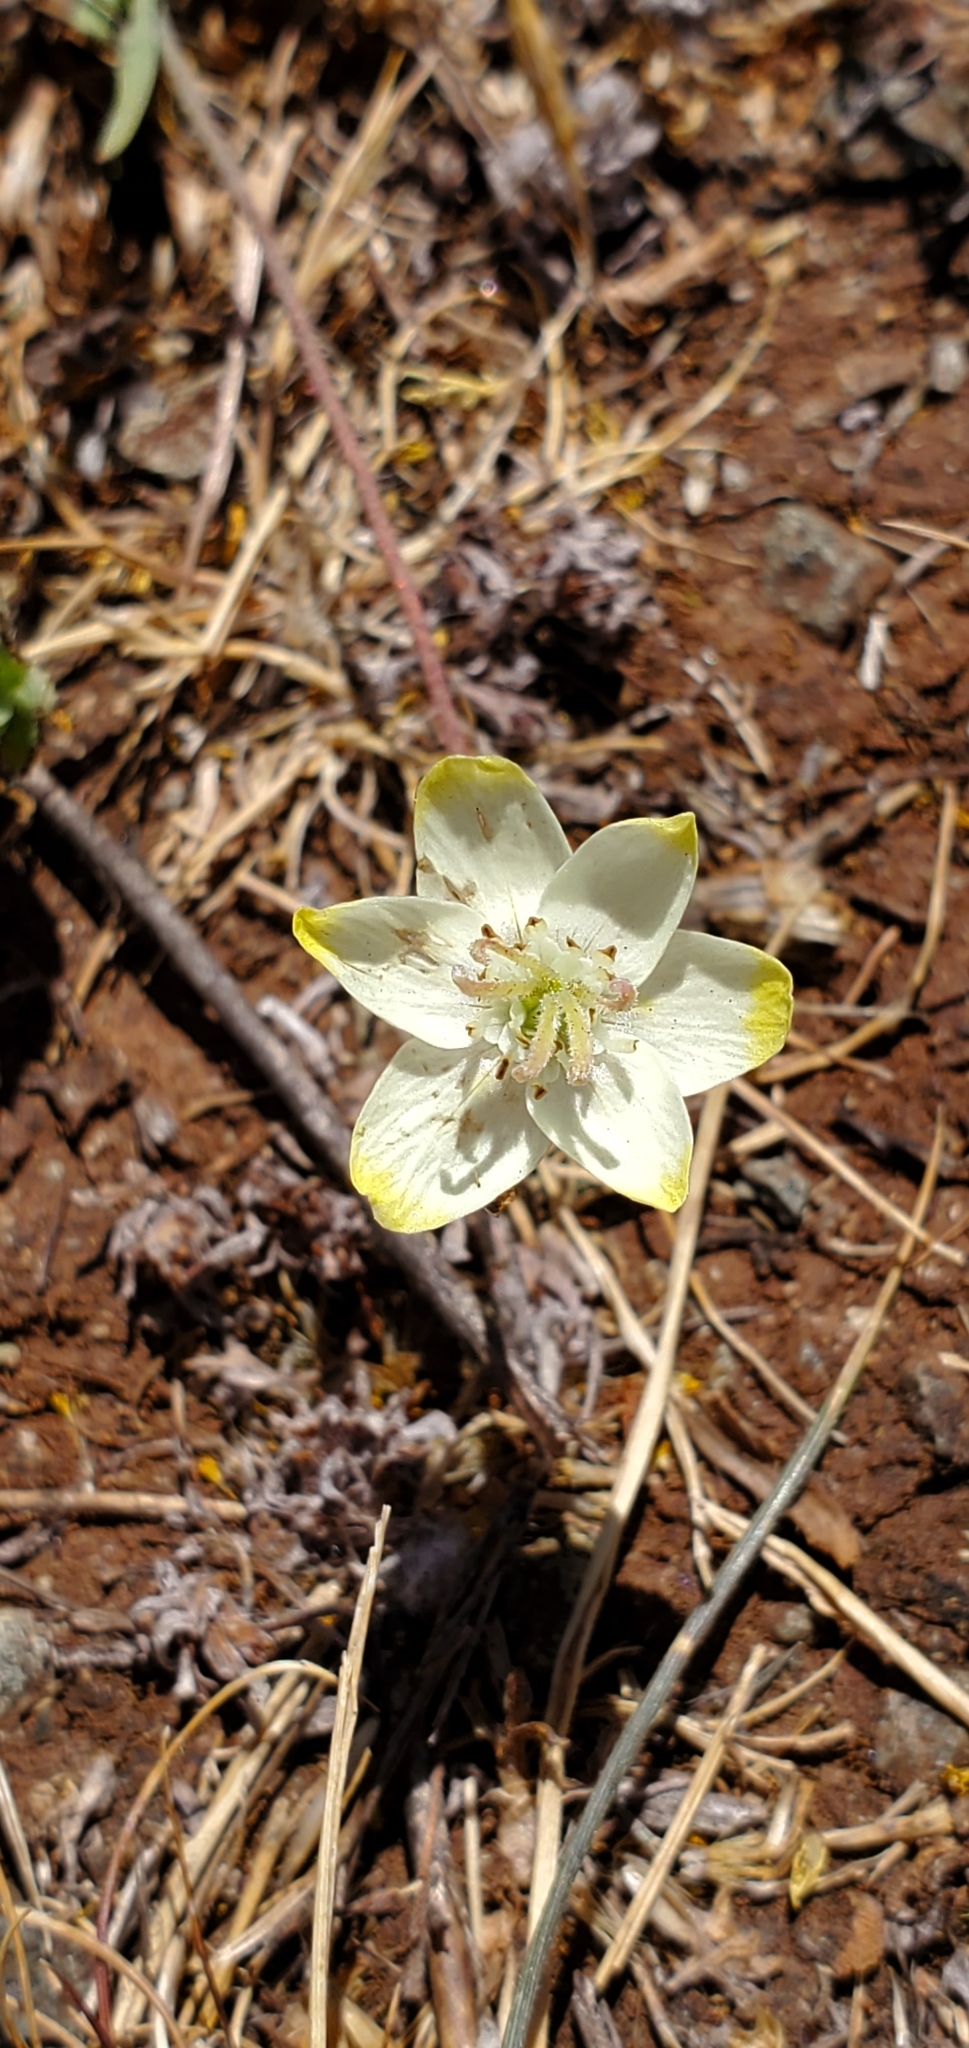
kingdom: Plantae
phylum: Tracheophyta
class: Magnoliopsida
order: Ranunculales
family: Papaveraceae
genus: Platystemon
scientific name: Platystemon californicus
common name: Cream-cups
